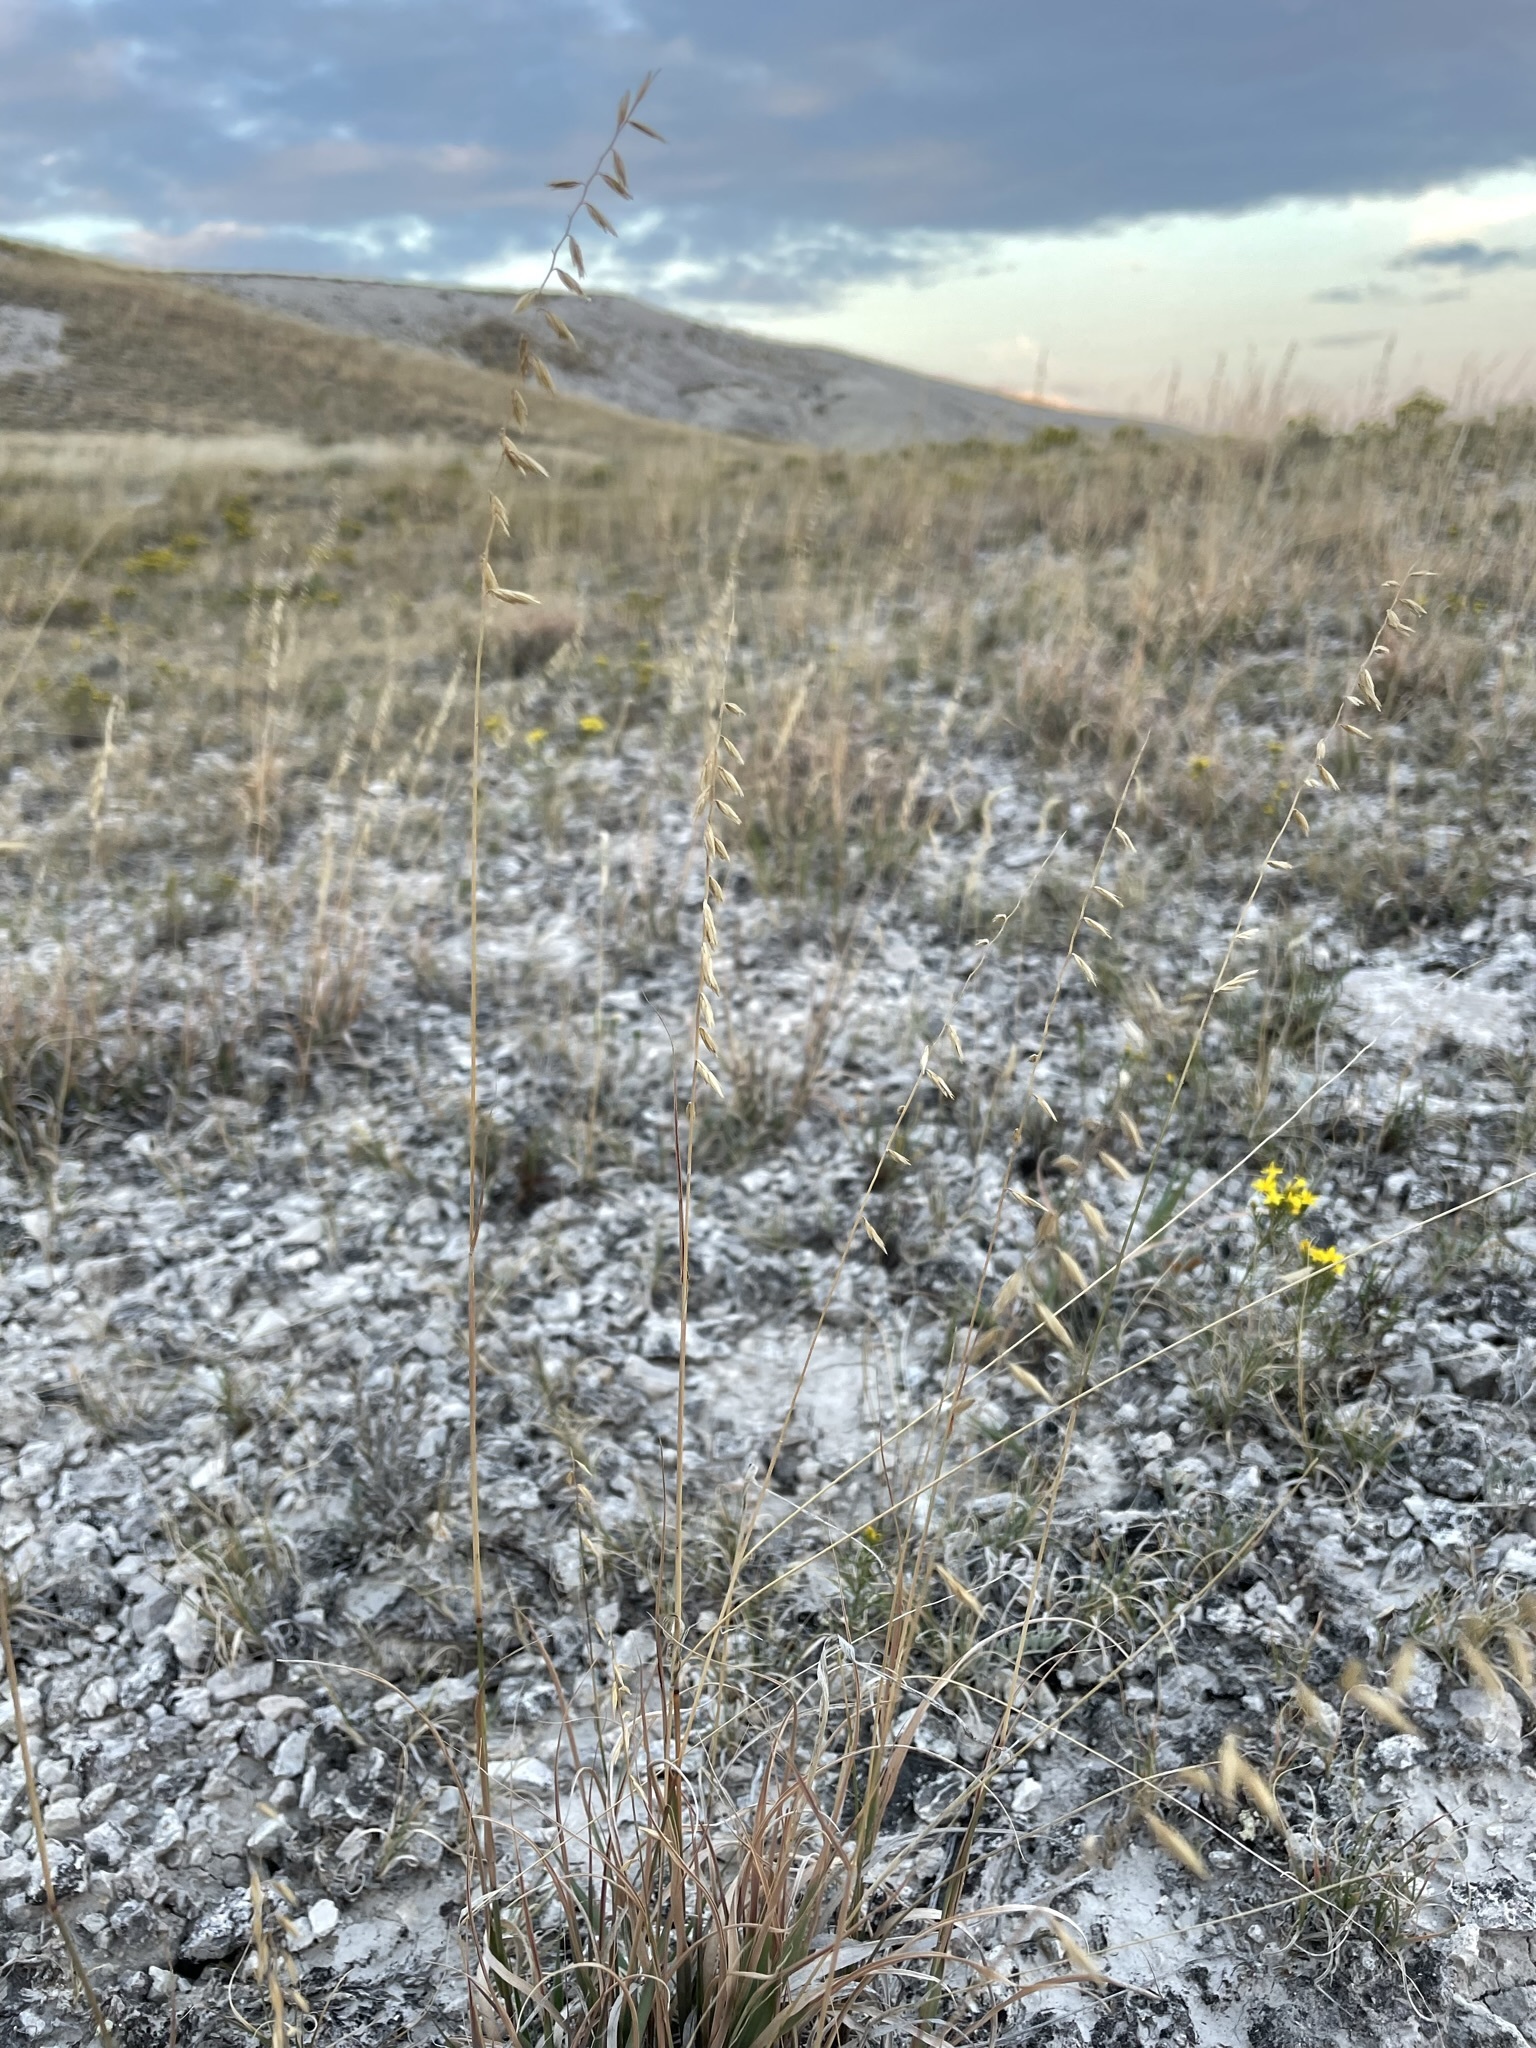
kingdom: Plantae
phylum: Tracheophyta
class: Liliopsida
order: Poales
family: Poaceae
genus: Bouteloua
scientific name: Bouteloua curtipendula
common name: Side-oats grama
